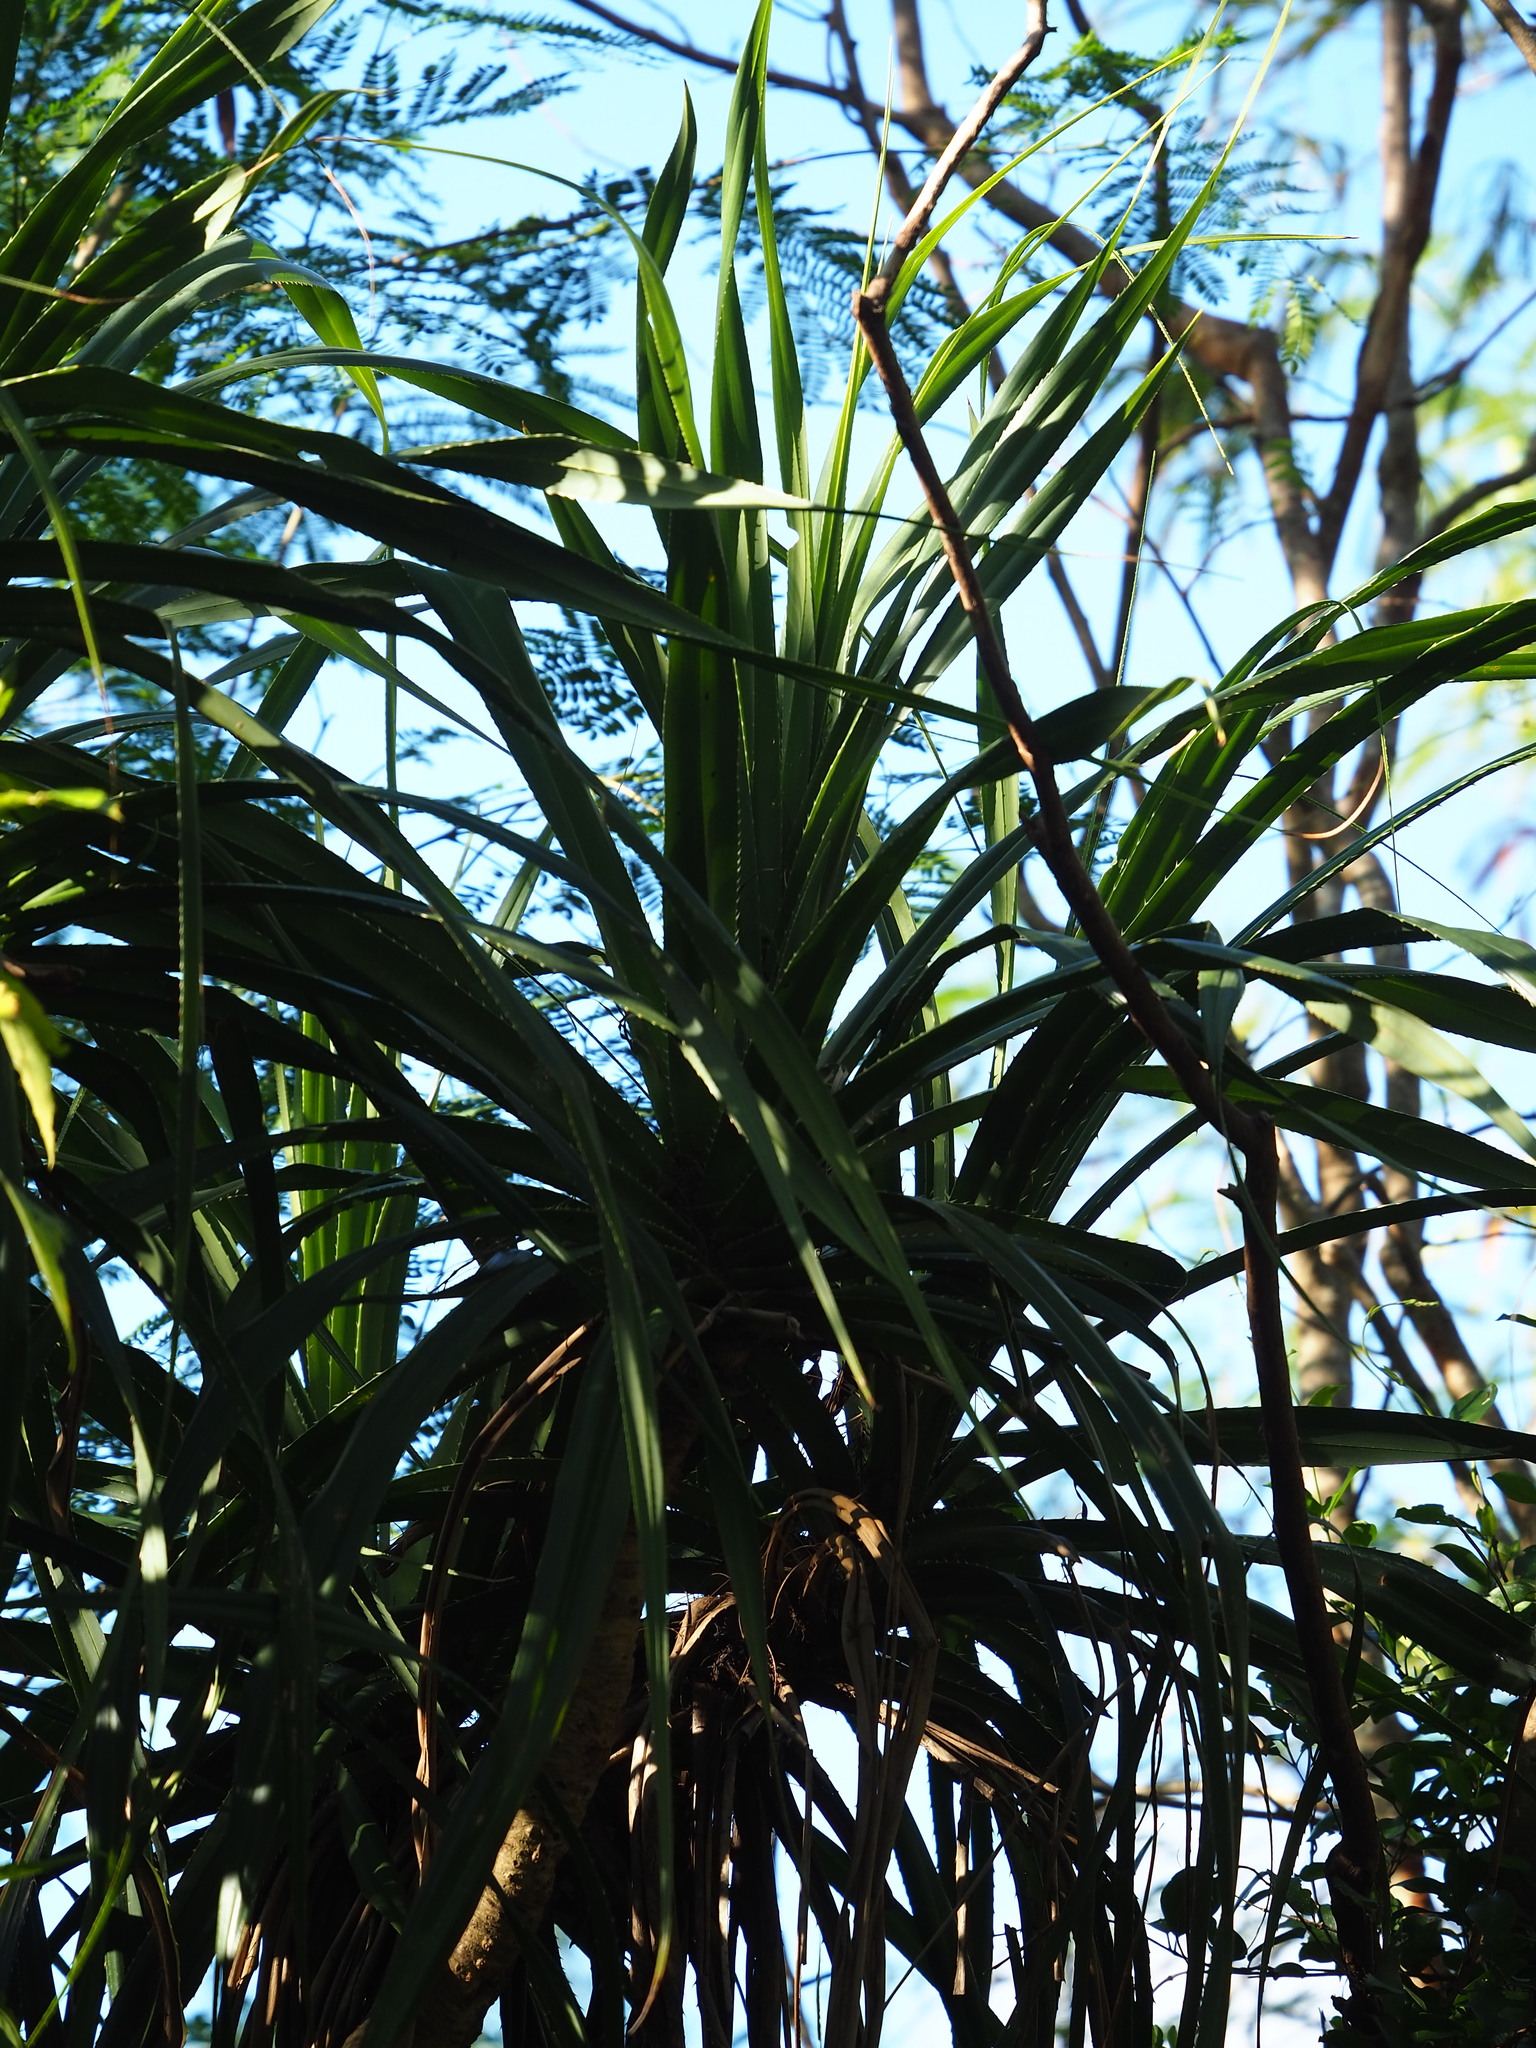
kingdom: Plantae
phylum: Tracheophyta
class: Liliopsida
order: Pandanales
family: Pandanaceae
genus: Pandanus
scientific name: Pandanus odorifer
